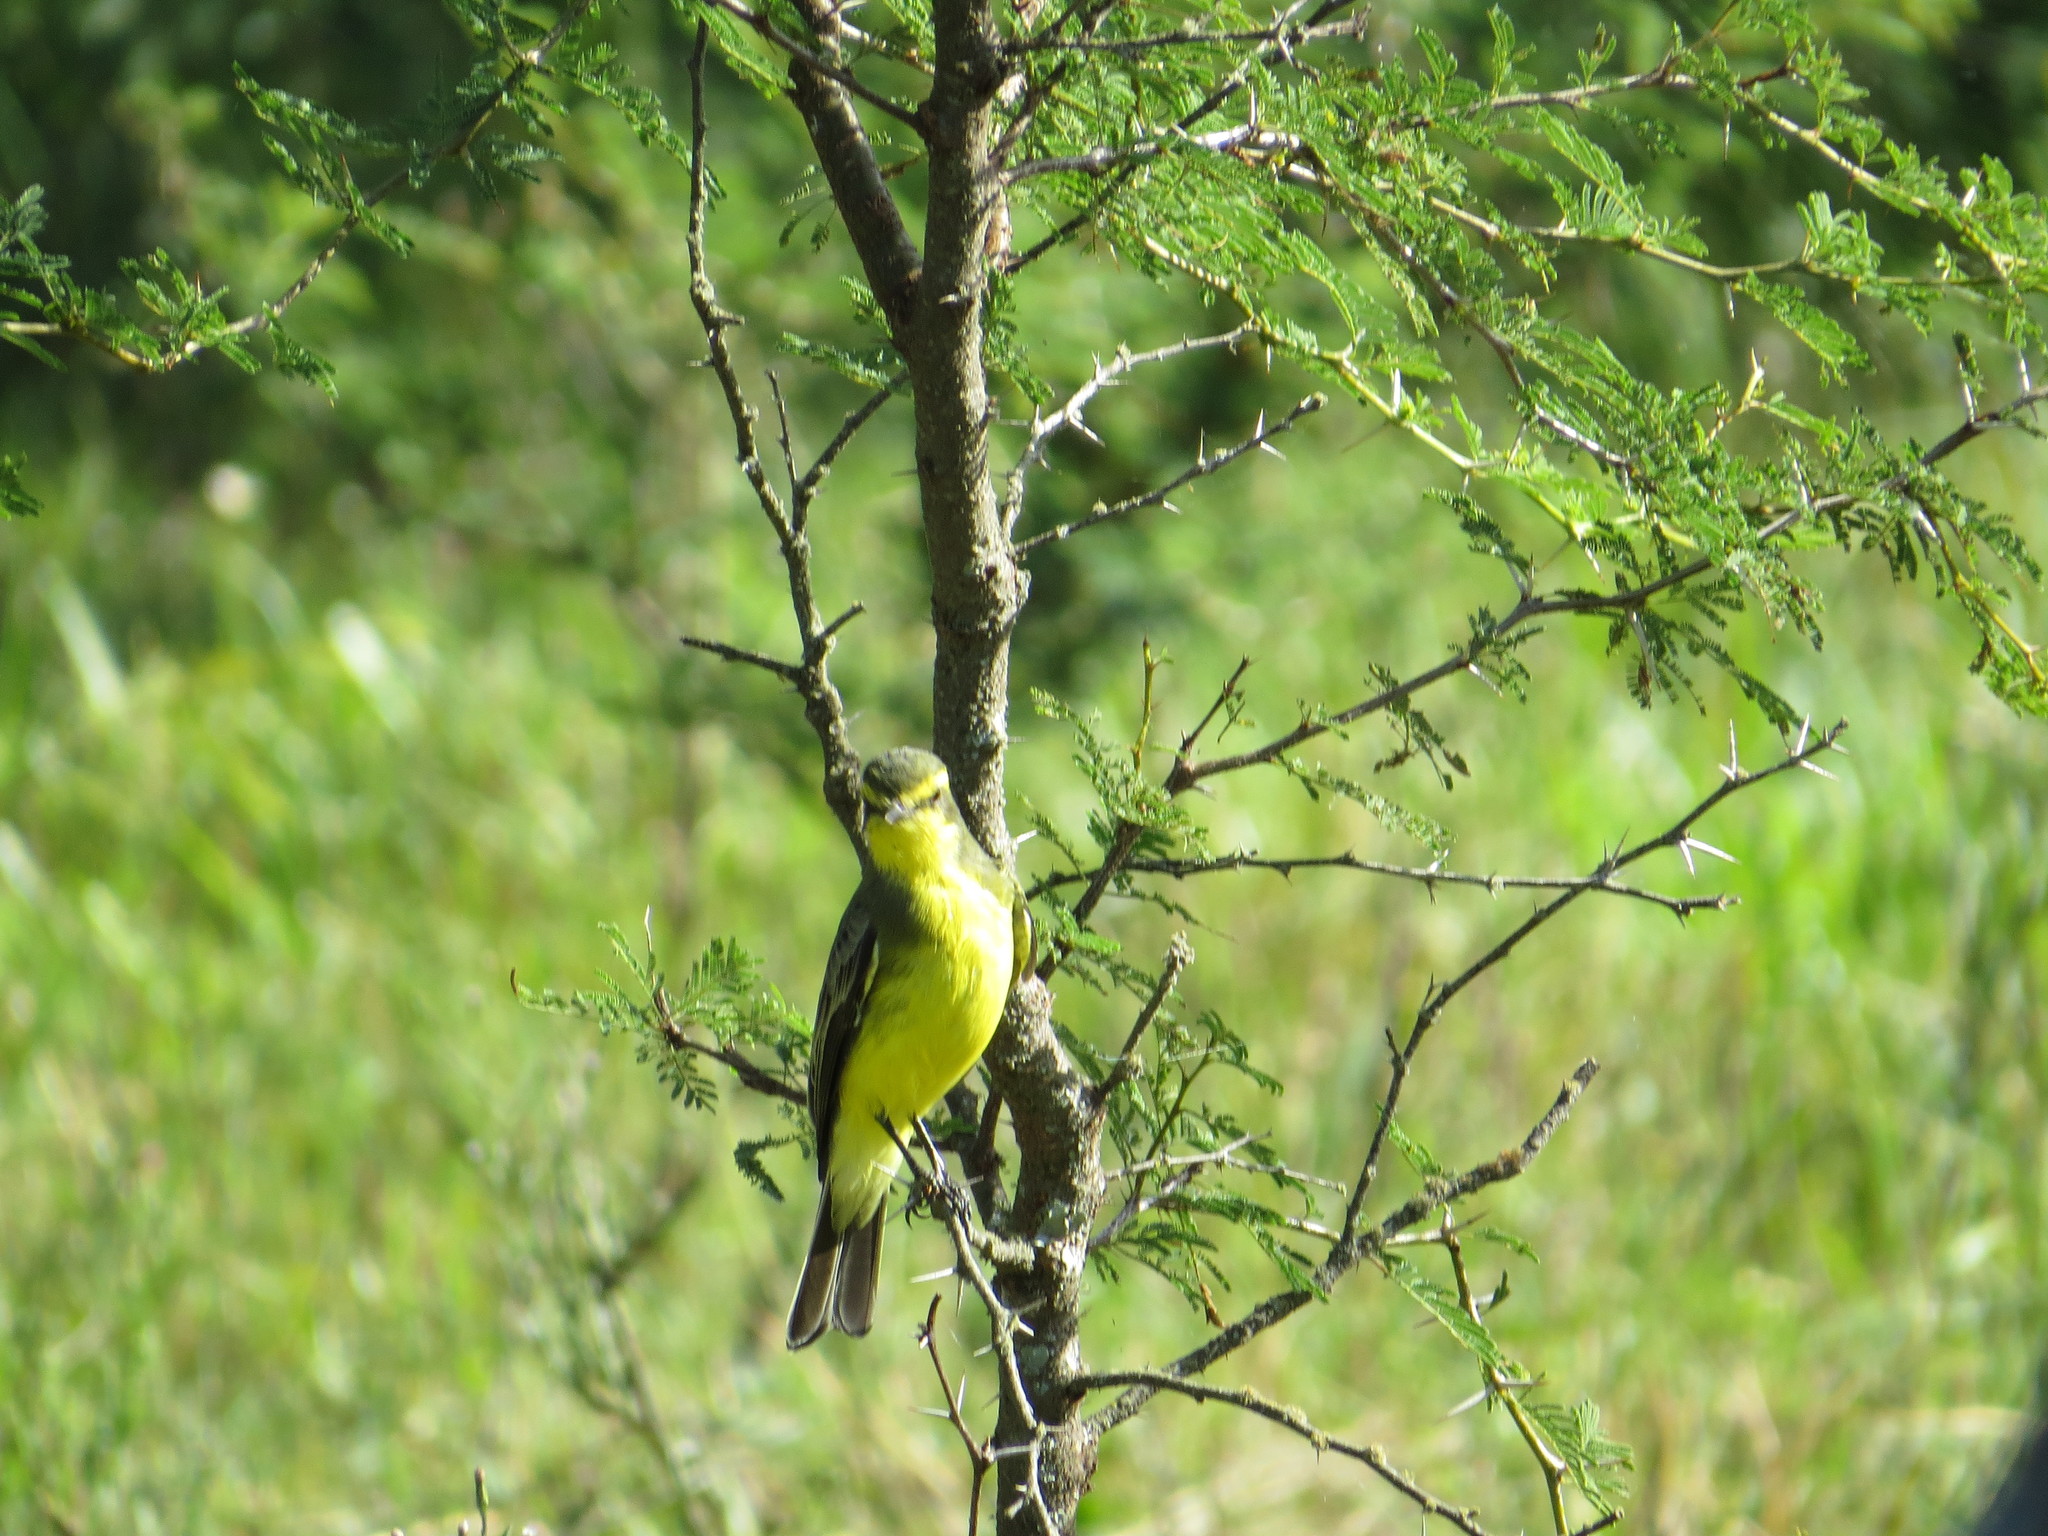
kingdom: Animalia
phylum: Chordata
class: Aves
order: Passeriformes
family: Tyrannidae
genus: Satrapa
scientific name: Satrapa icterophrys
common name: Yellow-browed tyrant
